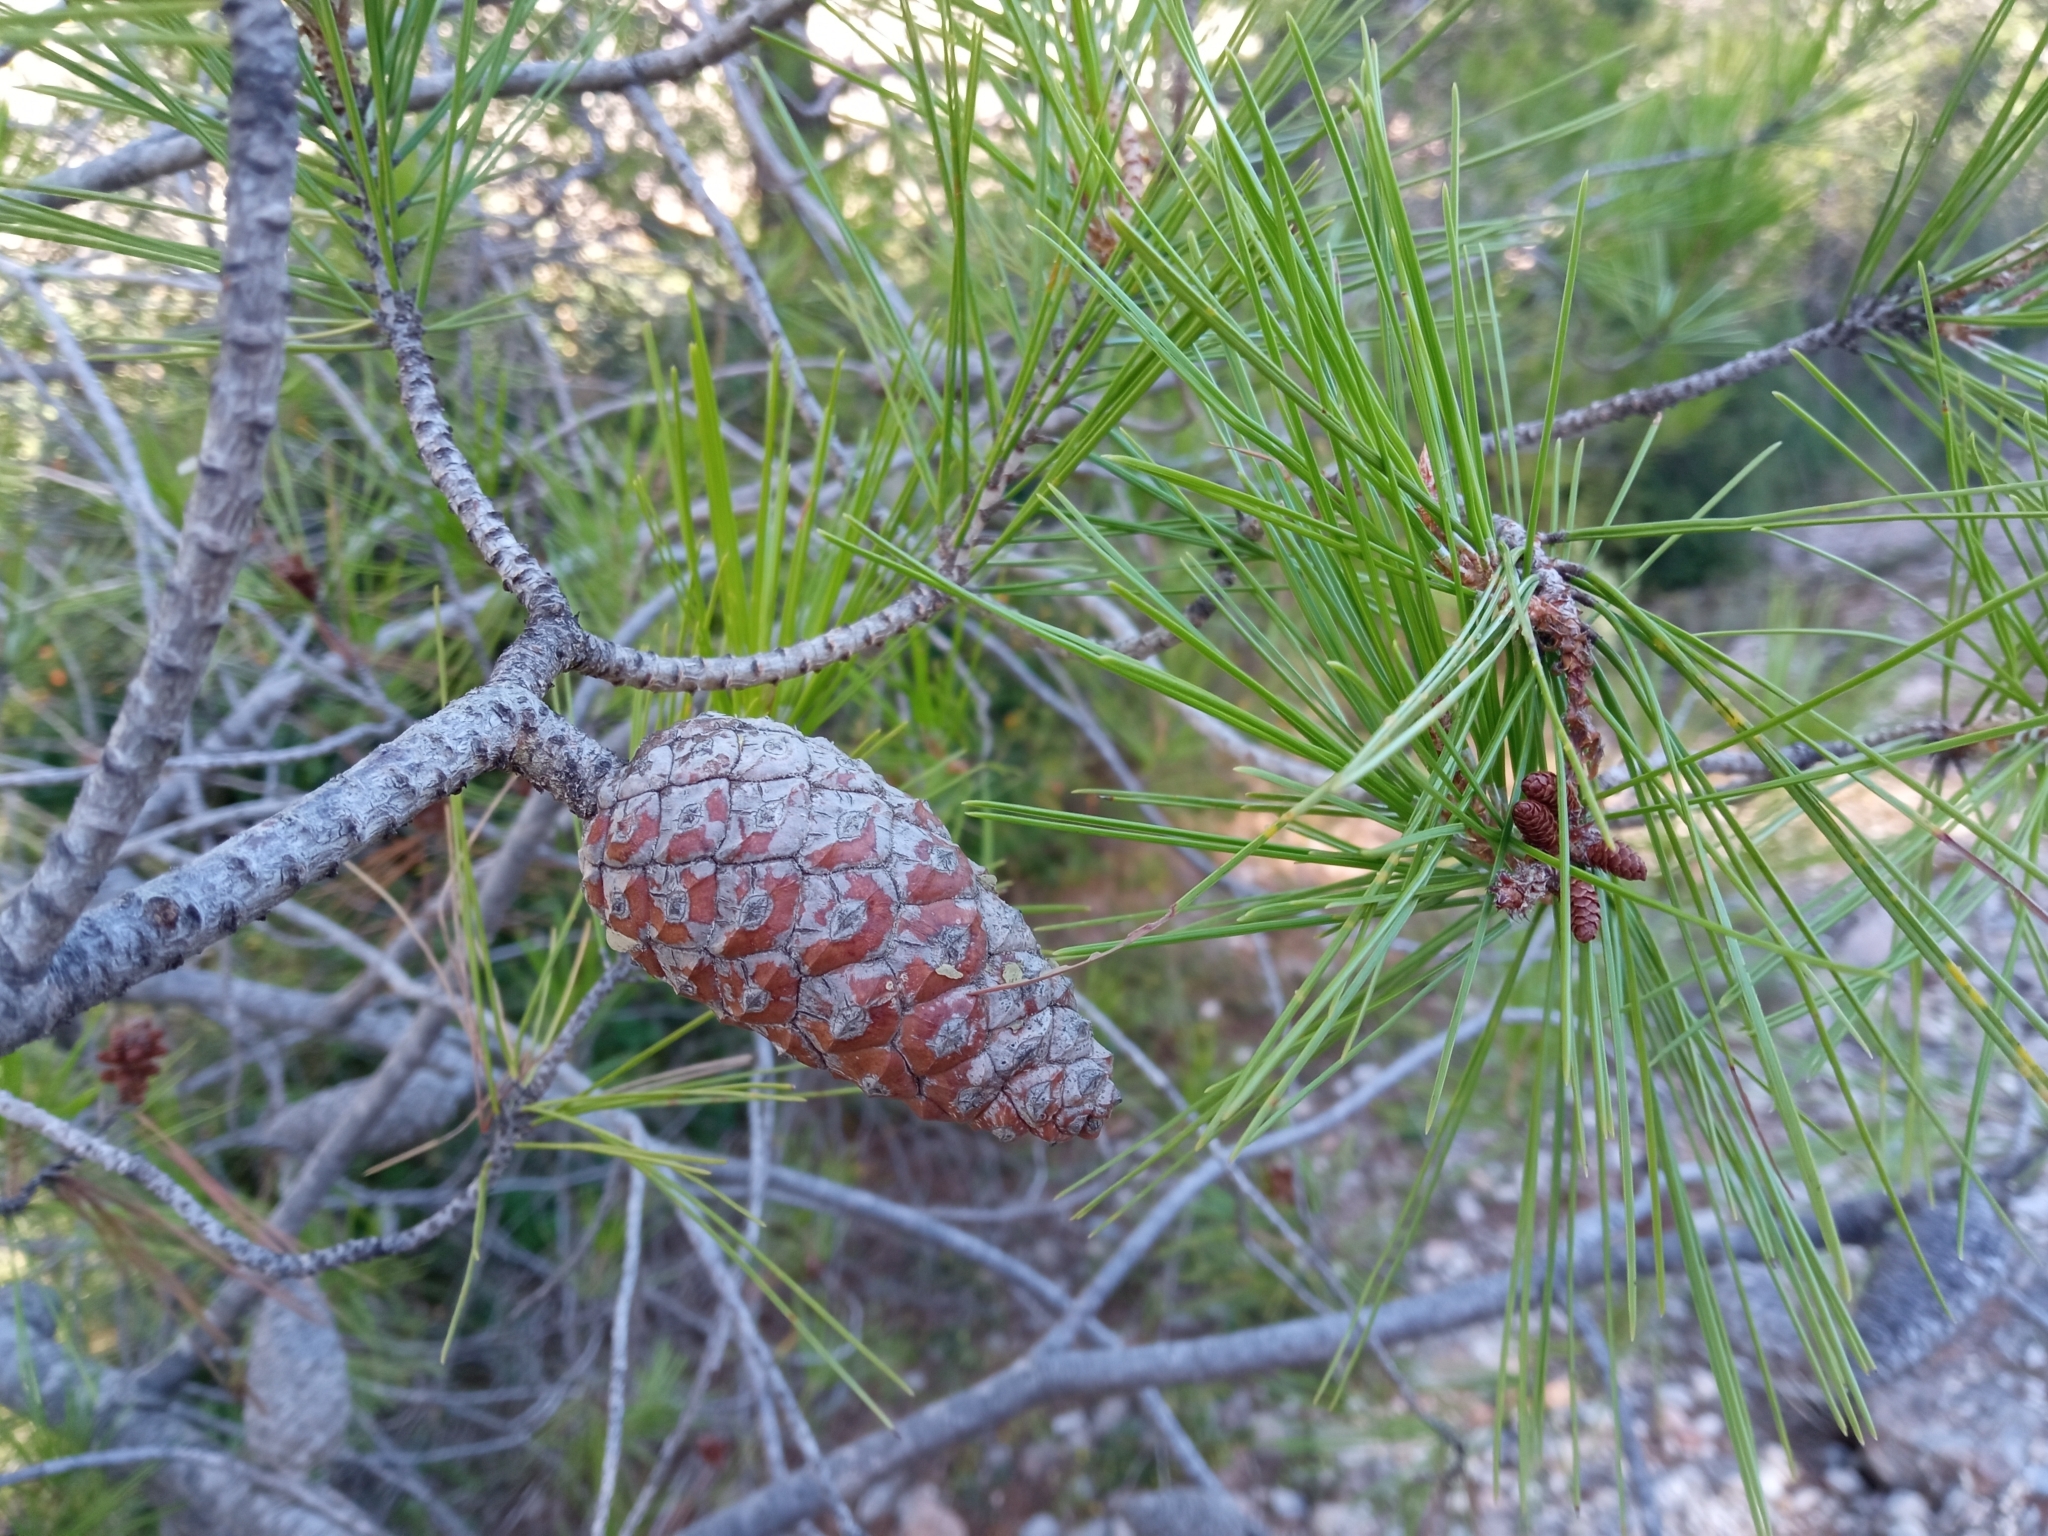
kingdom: Plantae
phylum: Tracheophyta
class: Pinopsida
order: Pinales
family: Pinaceae
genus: Pinus
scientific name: Pinus halepensis
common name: Aleppo pine
